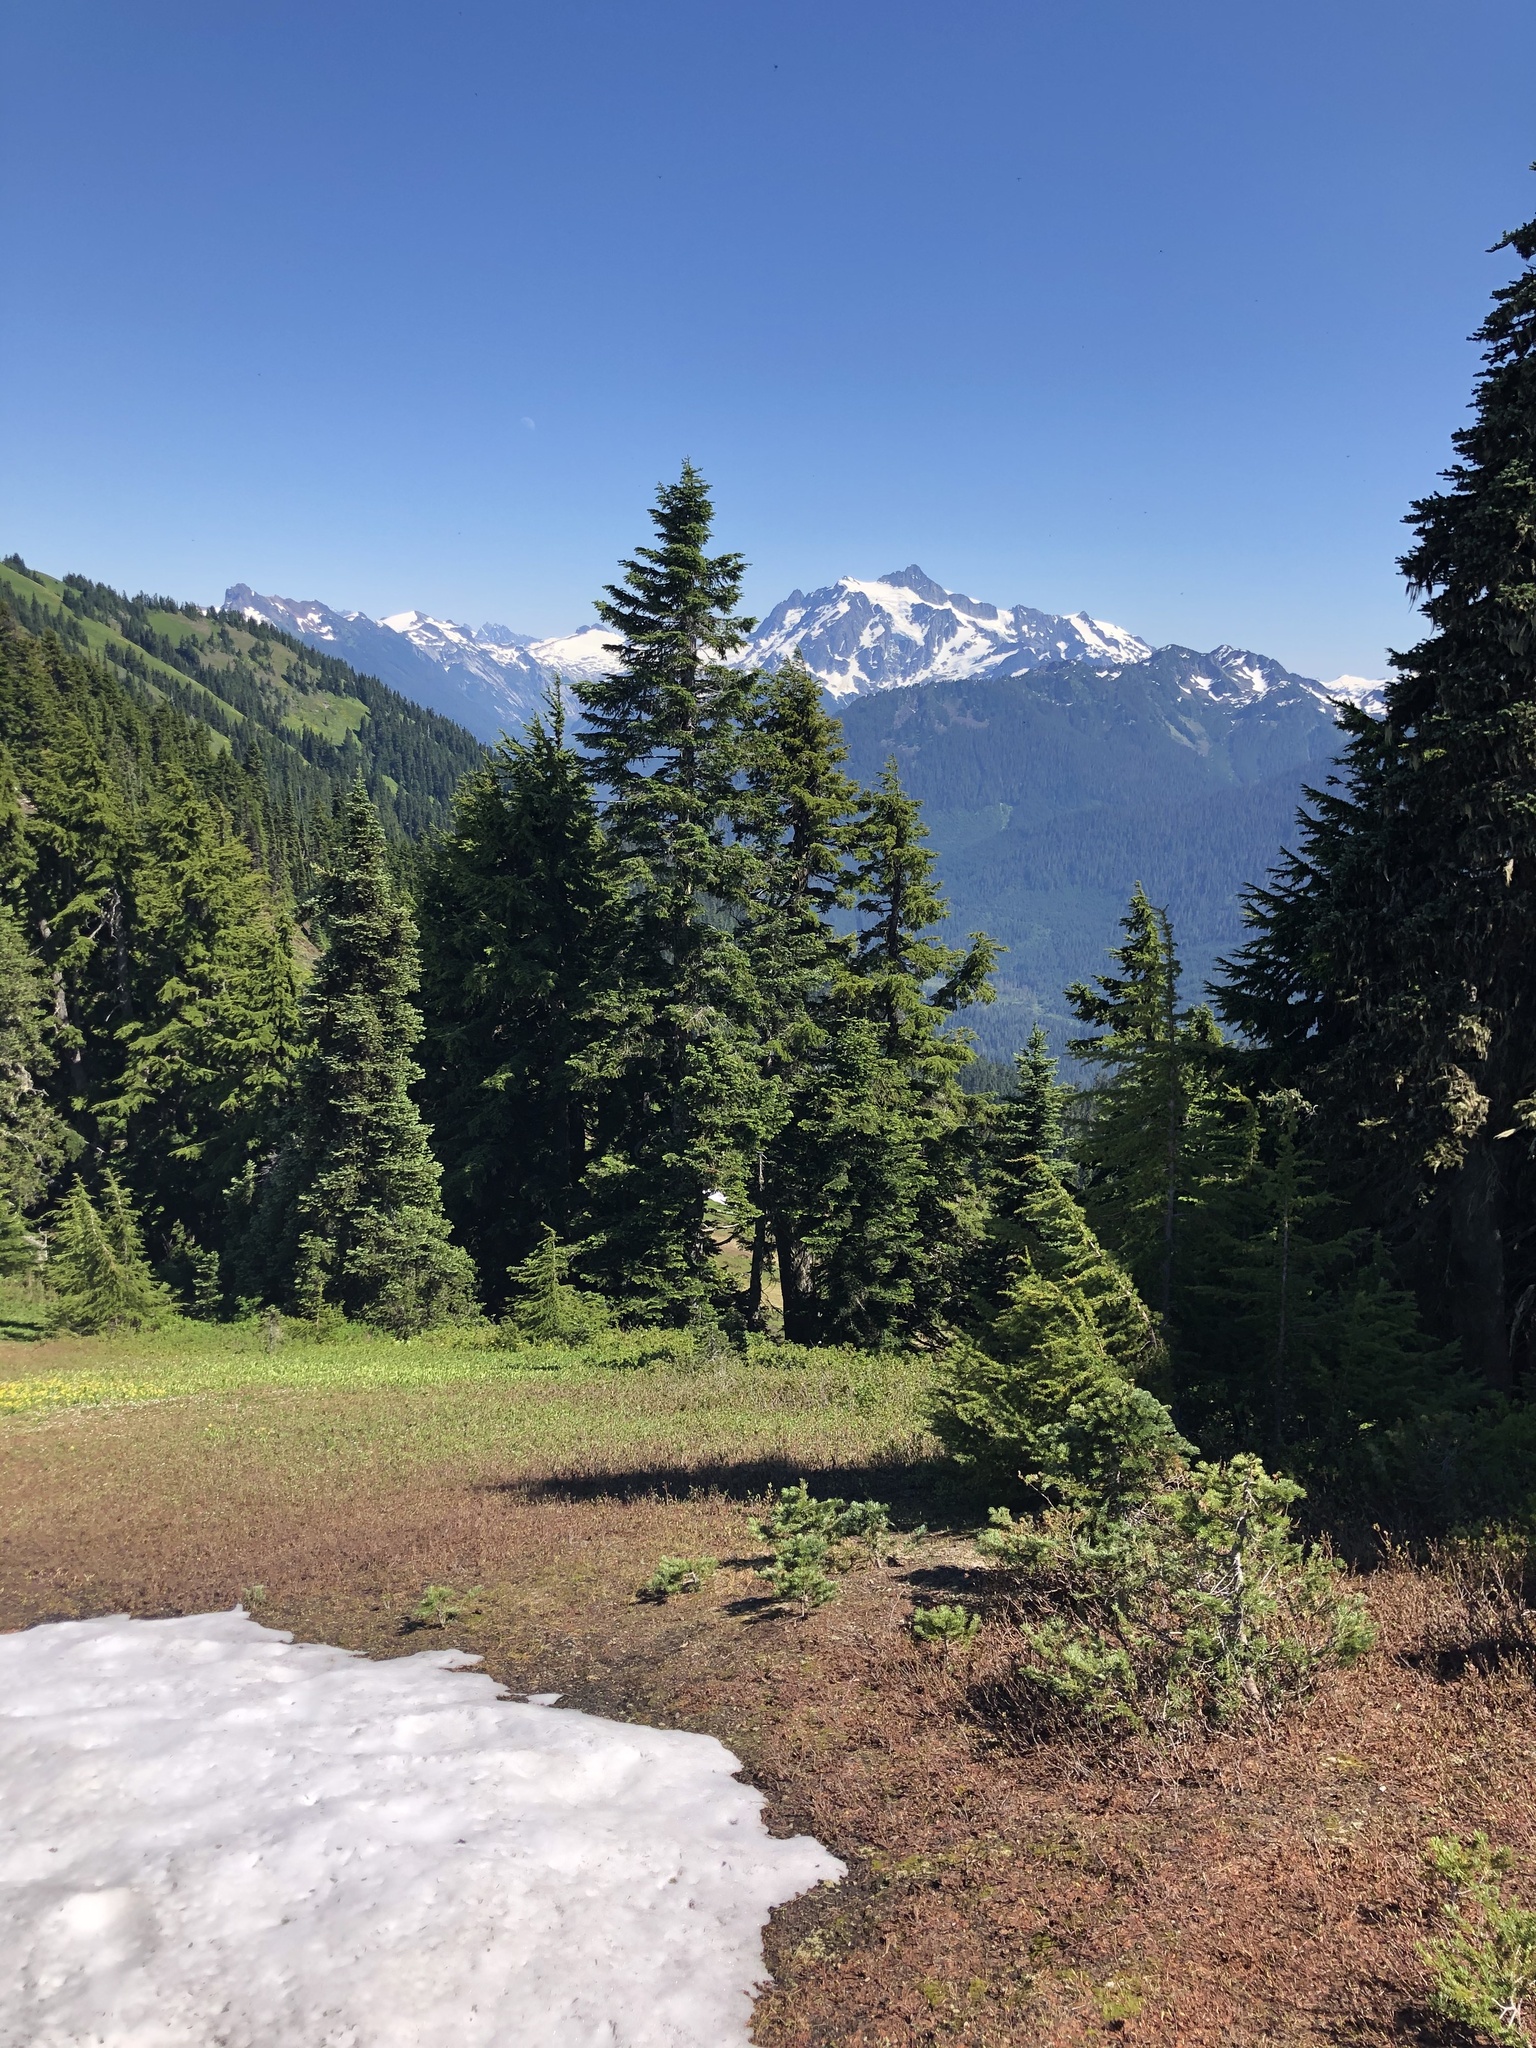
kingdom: Plantae
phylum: Tracheophyta
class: Pinopsida
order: Pinales
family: Pinaceae
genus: Tsuga
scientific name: Tsuga mertensiana
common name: Mountain hemlock
